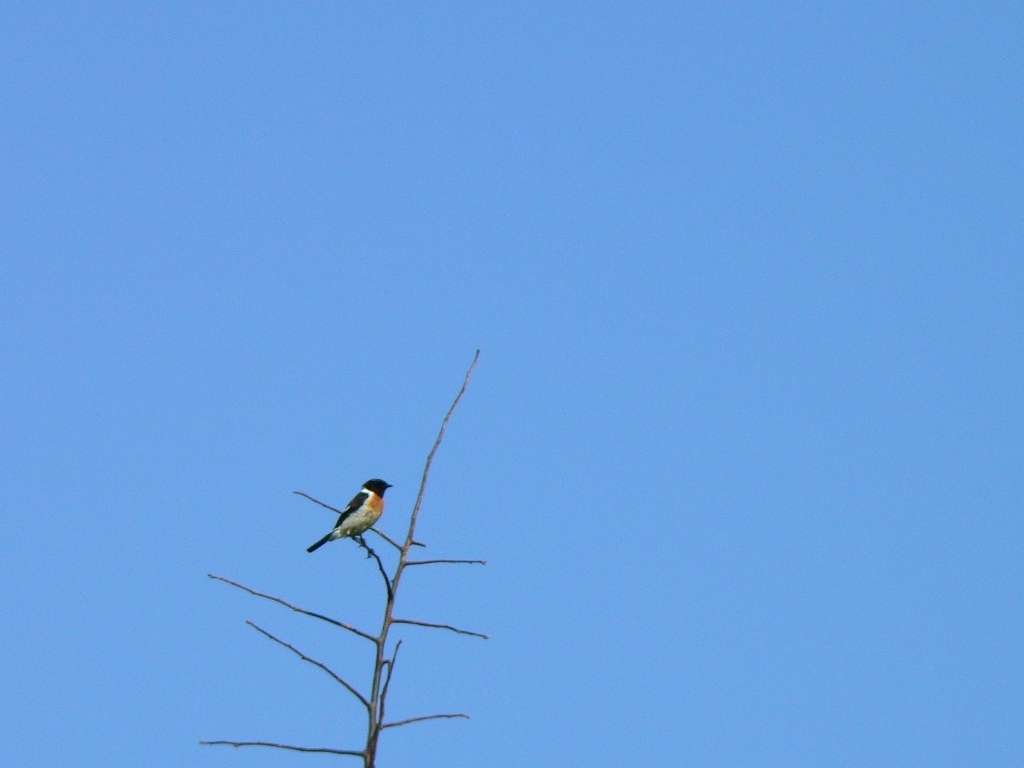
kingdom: Animalia
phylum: Chordata
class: Aves
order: Passeriformes
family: Muscicapidae
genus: Saxicola
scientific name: Saxicola maurus
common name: Siberian stonechat
